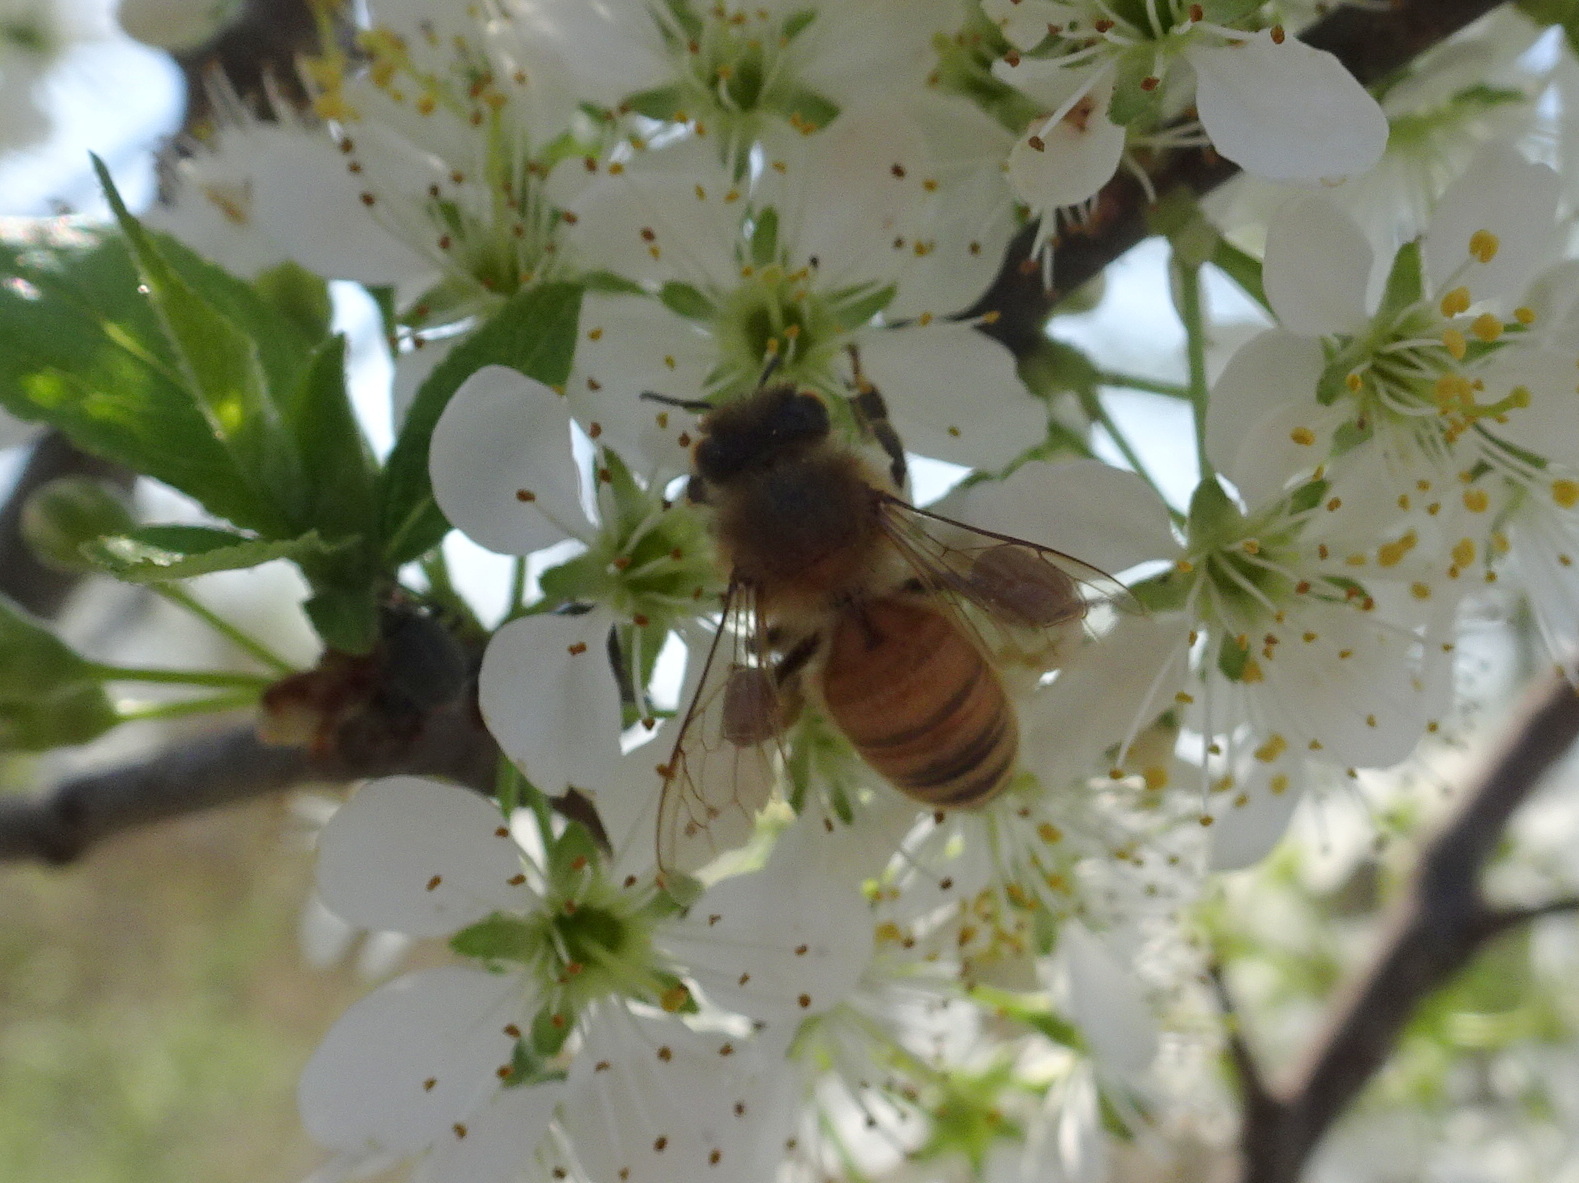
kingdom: Animalia
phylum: Arthropoda
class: Insecta
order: Hymenoptera
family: Apidae
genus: Apis
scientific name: Apis mellifera
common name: Honey bee
